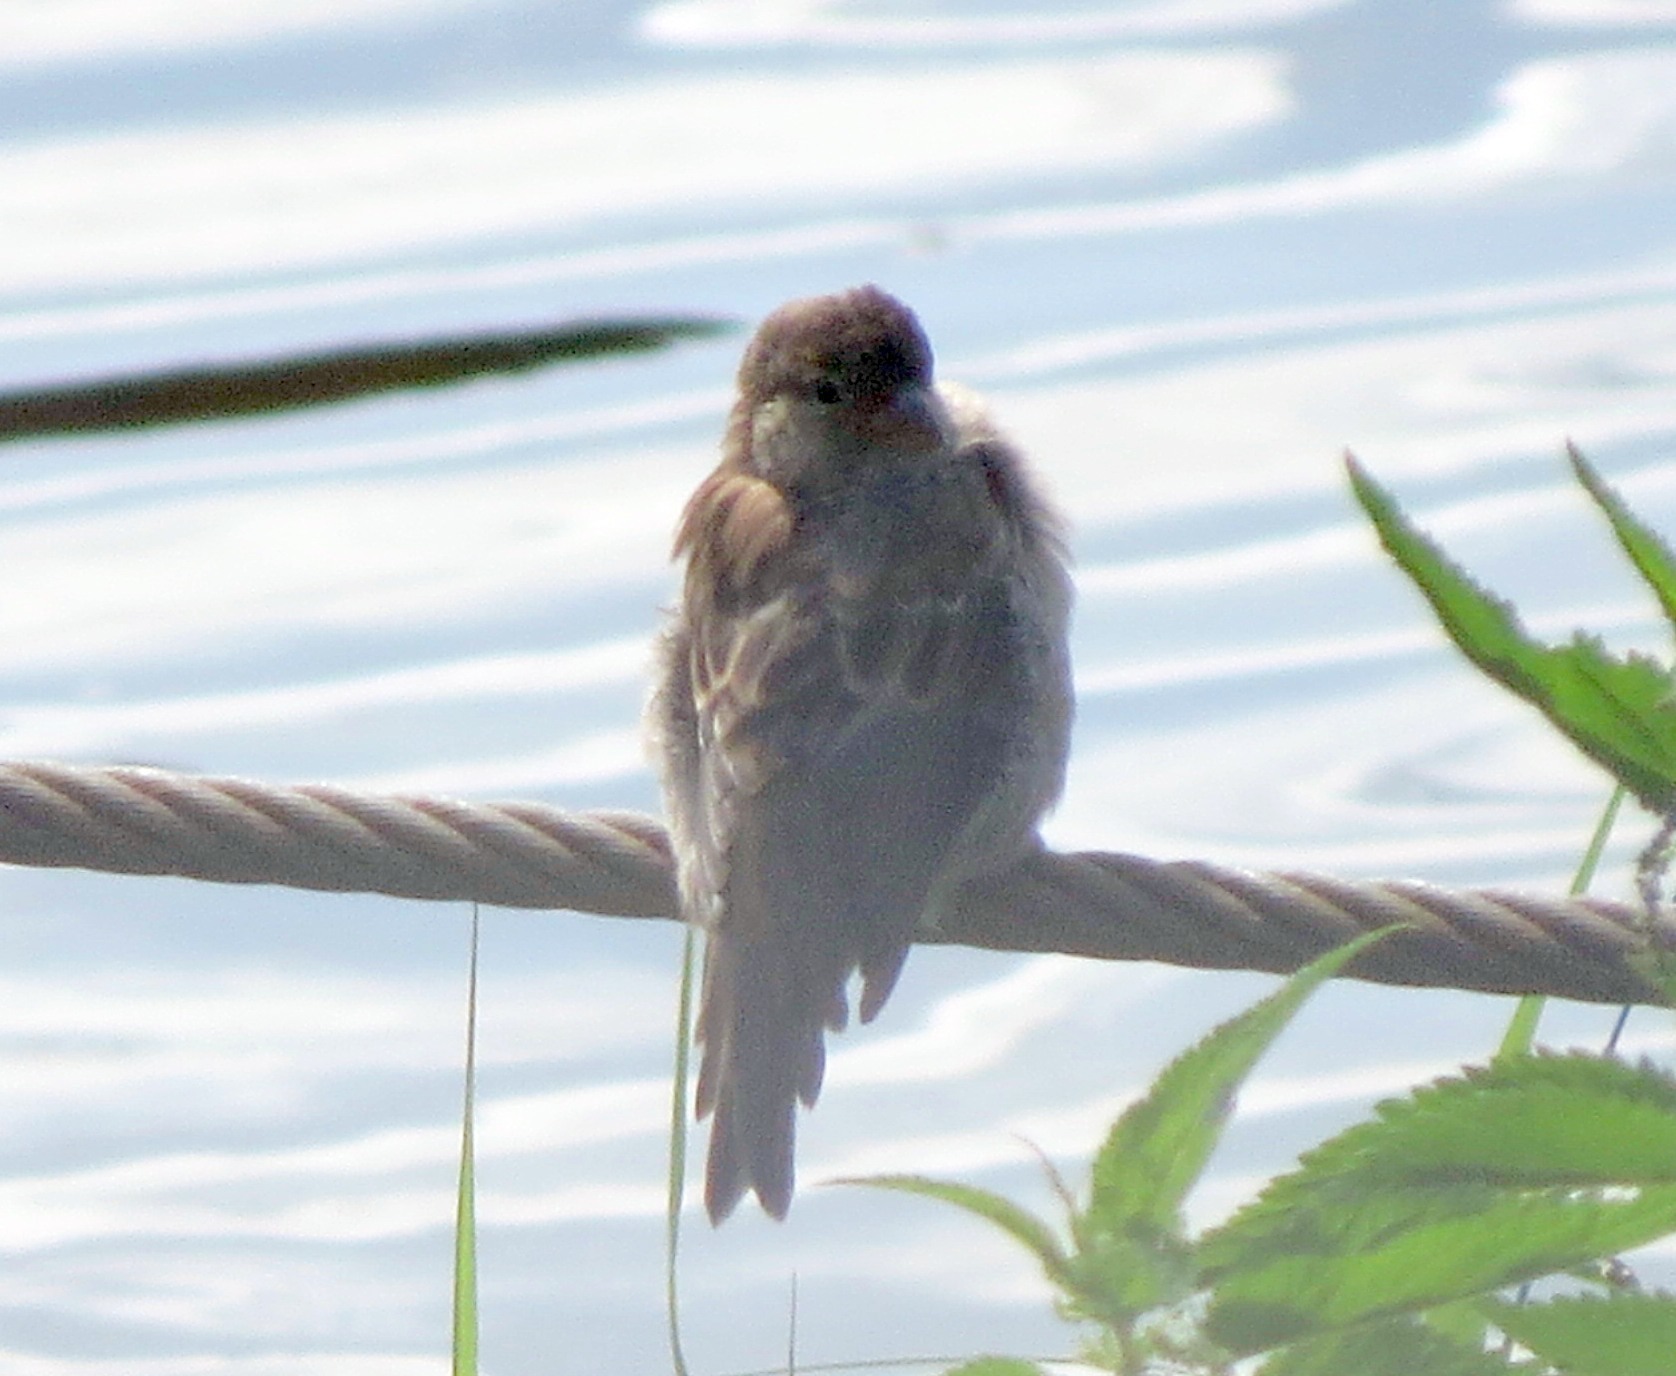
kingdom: Animalia
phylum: Chordata
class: Aves
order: Passeriformes
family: Passeridae
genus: Passer
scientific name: Passer domesticus
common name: House sparrow
